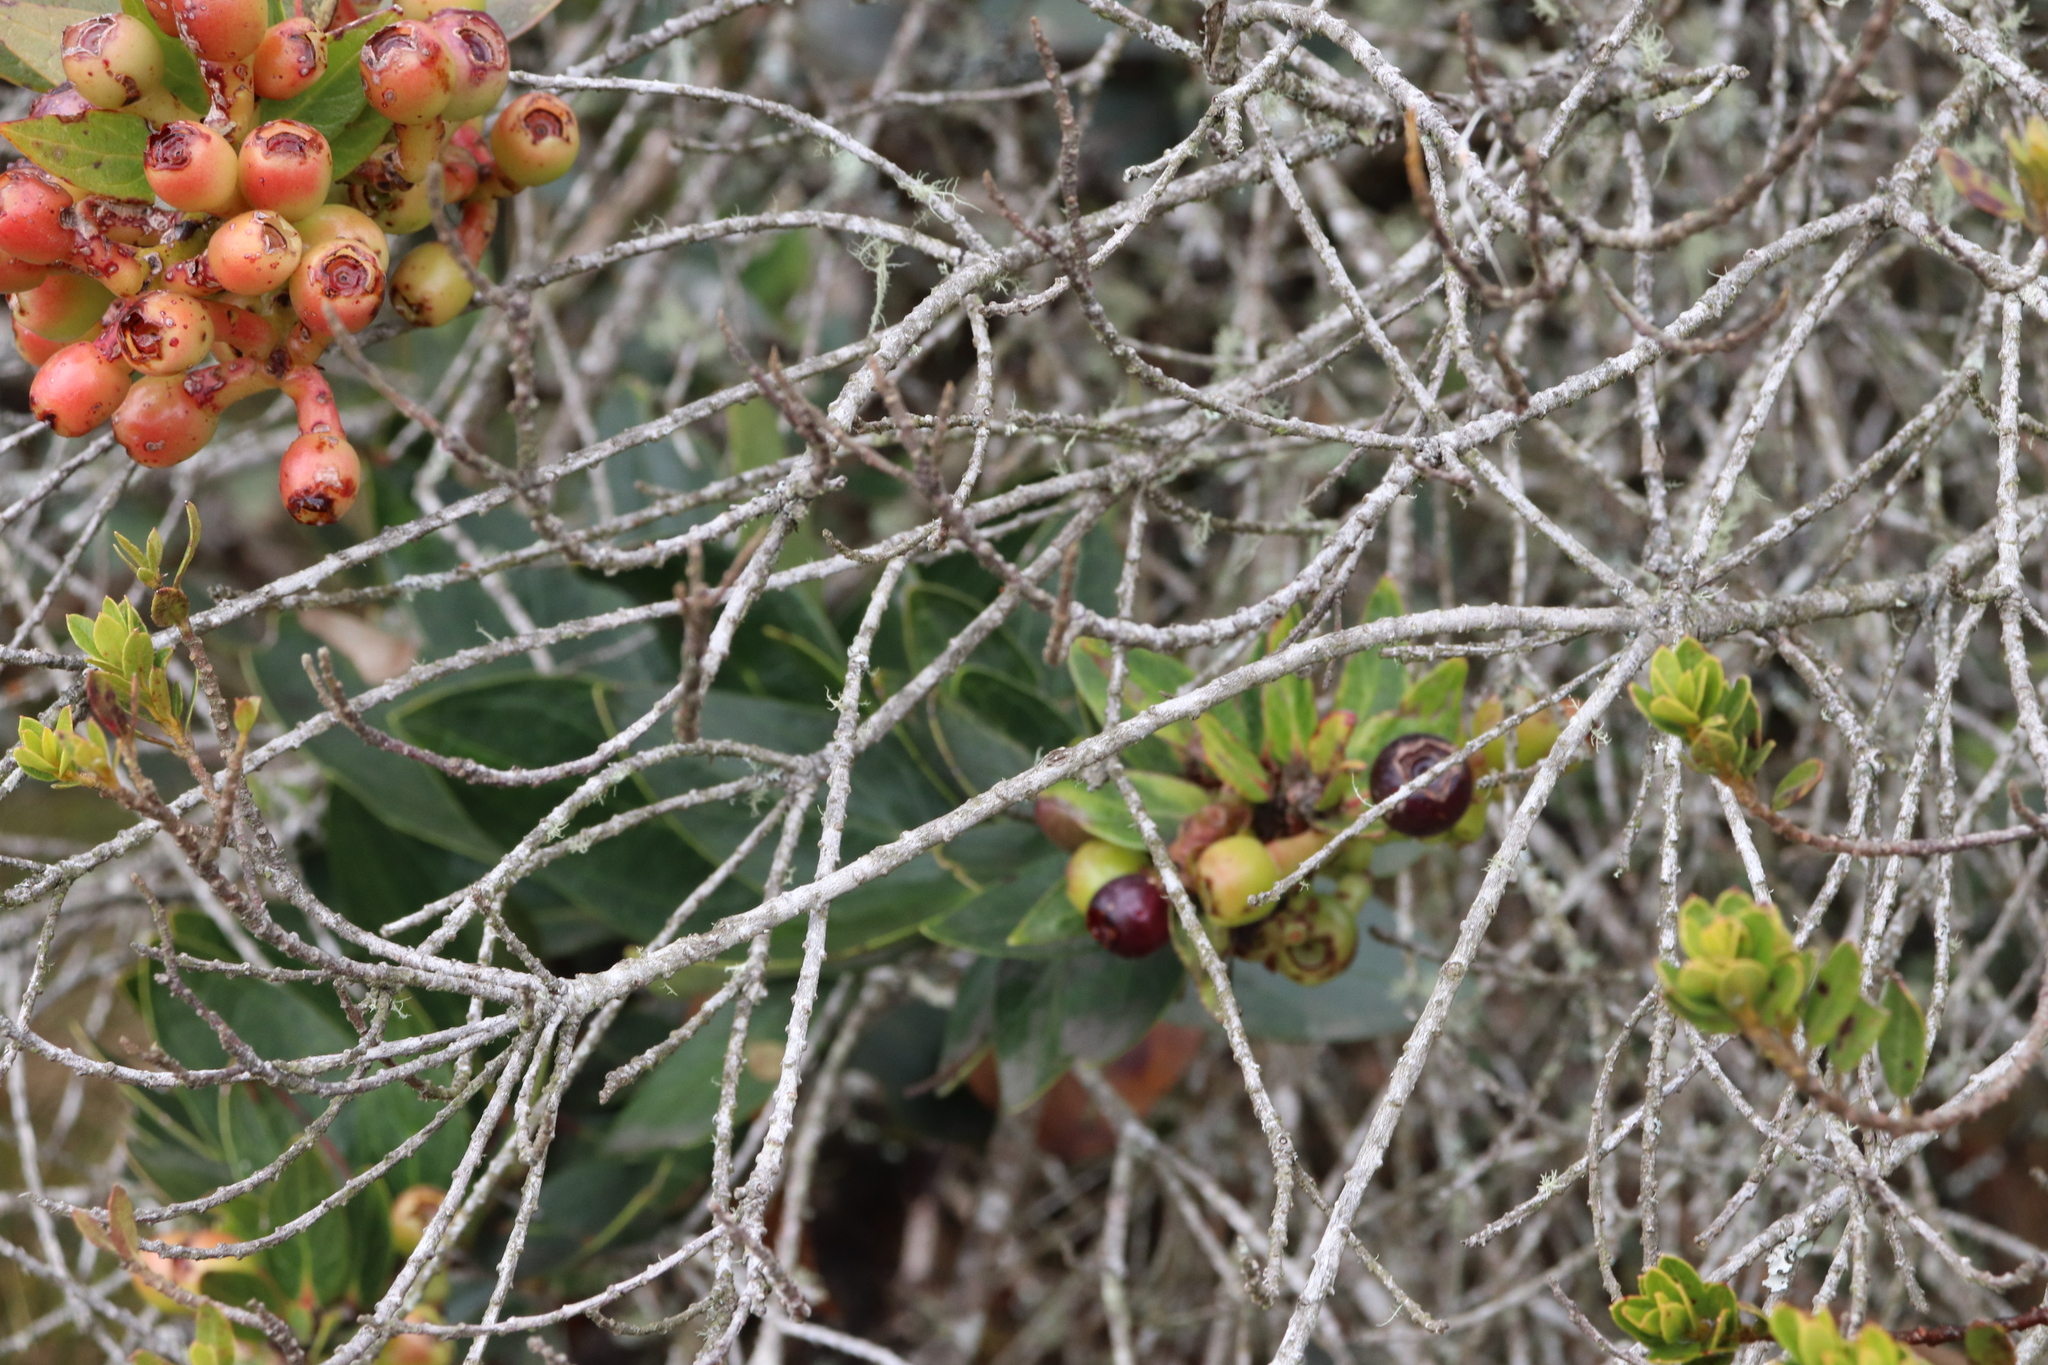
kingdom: Plantae
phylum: Tracheophyta
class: Magnoliopsida
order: Ericales
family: Ericaceae
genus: Macleania
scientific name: Macleania rupestris
